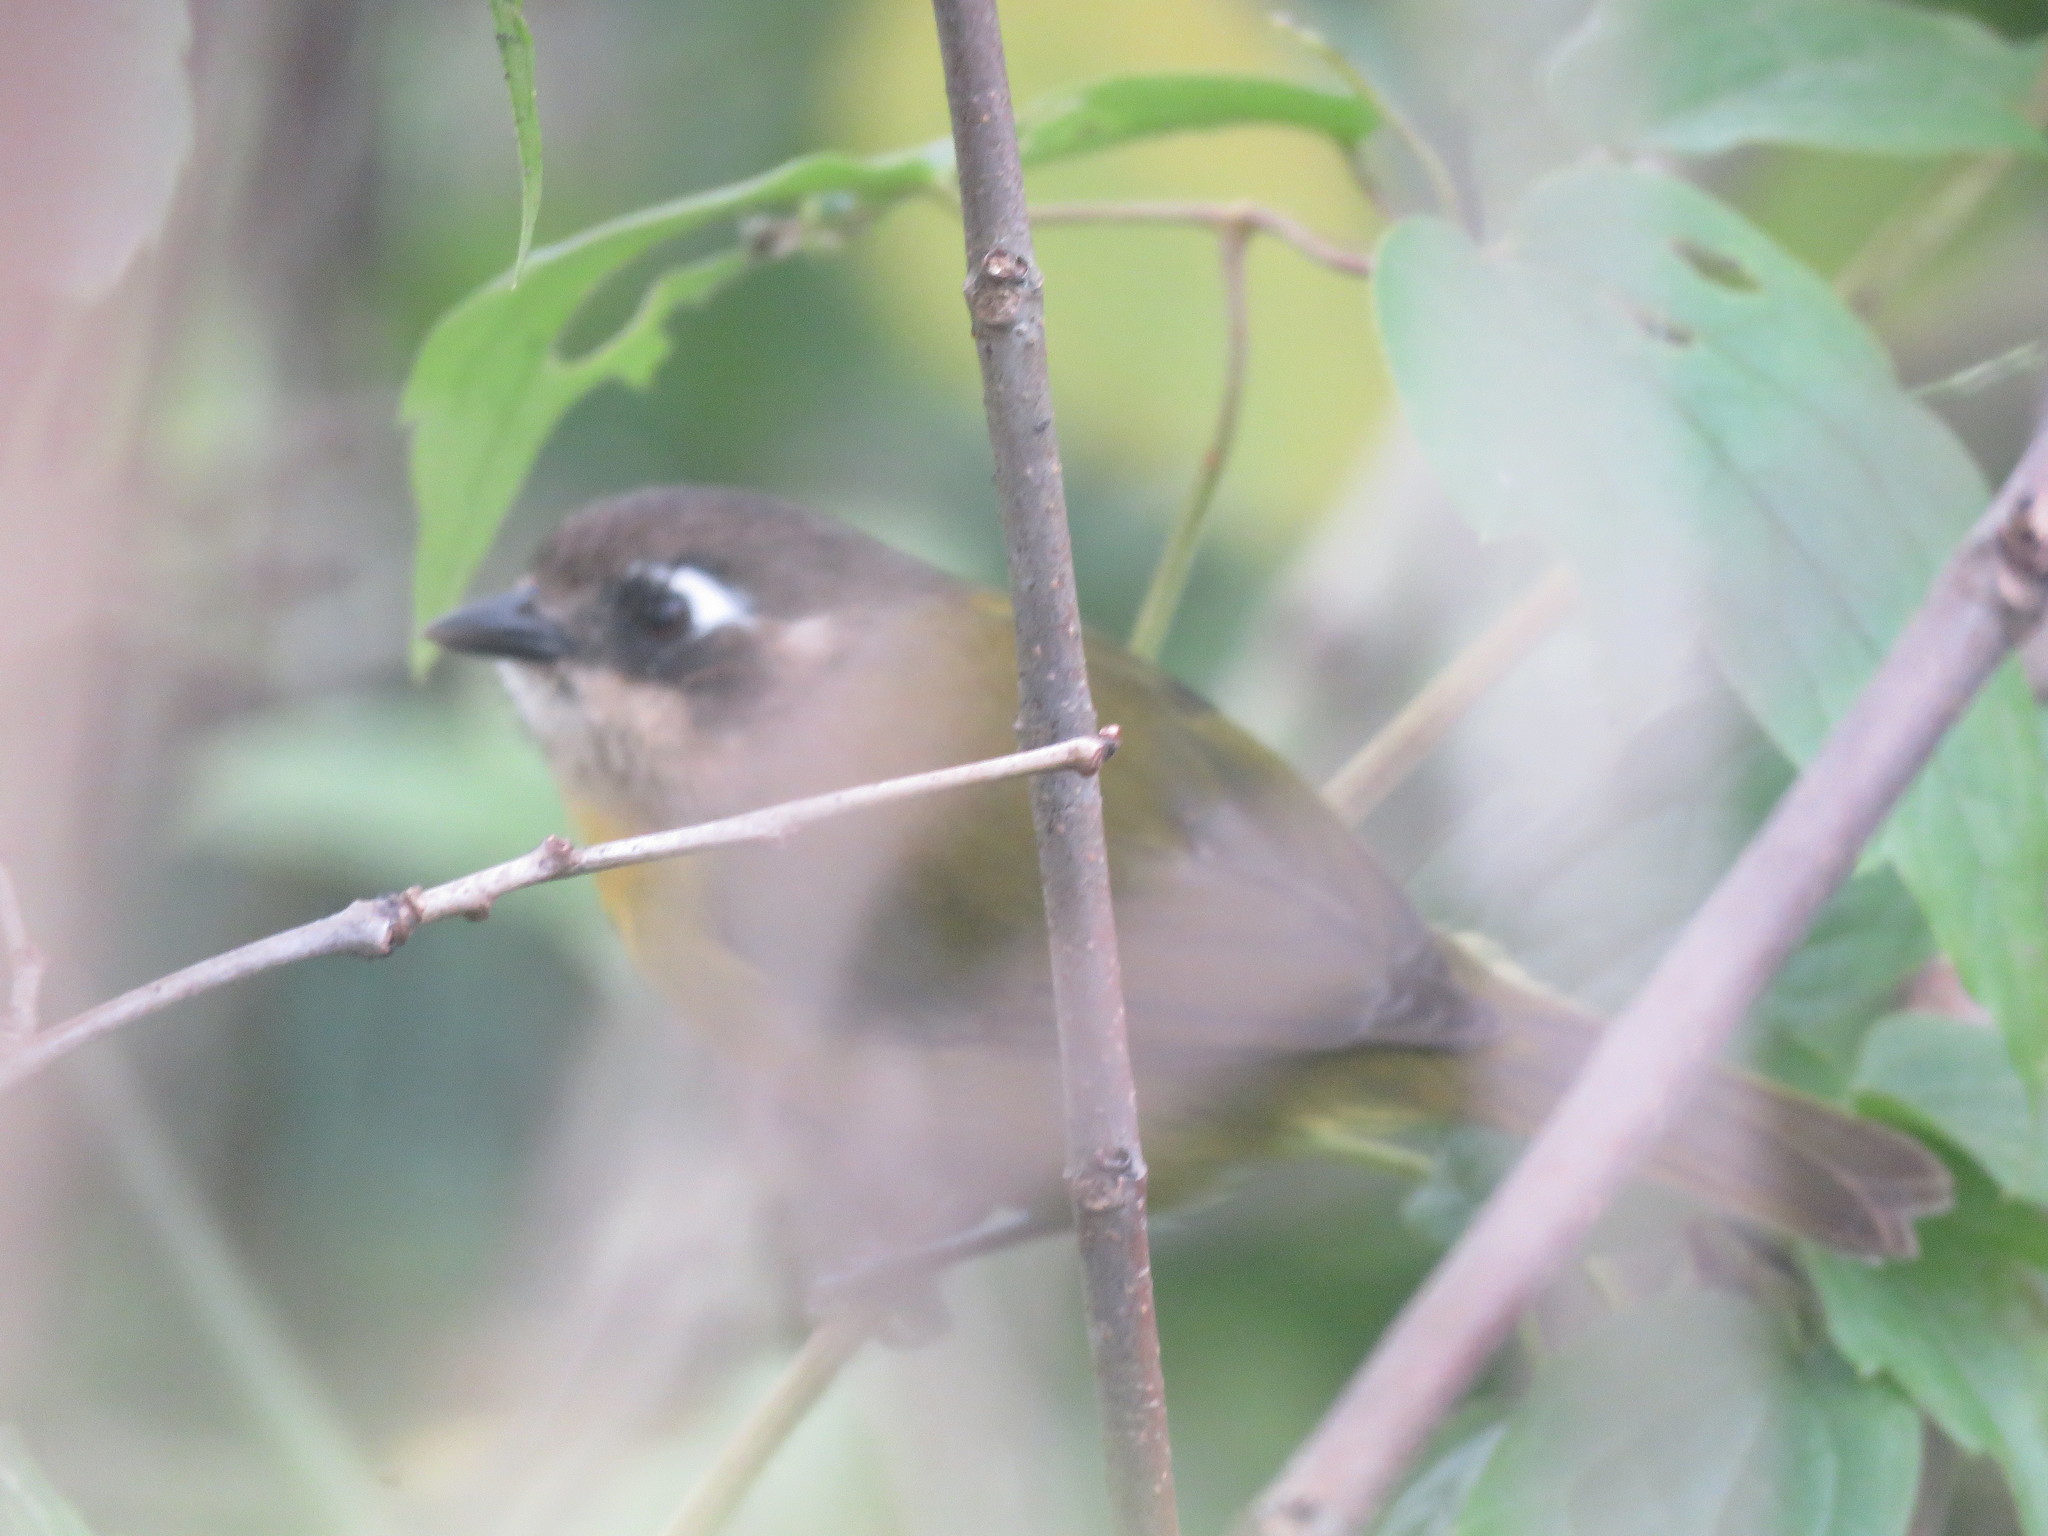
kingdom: Animalia
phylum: Chordata
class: Aves
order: Passeriformes
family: Passerellidae
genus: Chlorospingus
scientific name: Chlorospingus flavopectus
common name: Common chlorospingus
